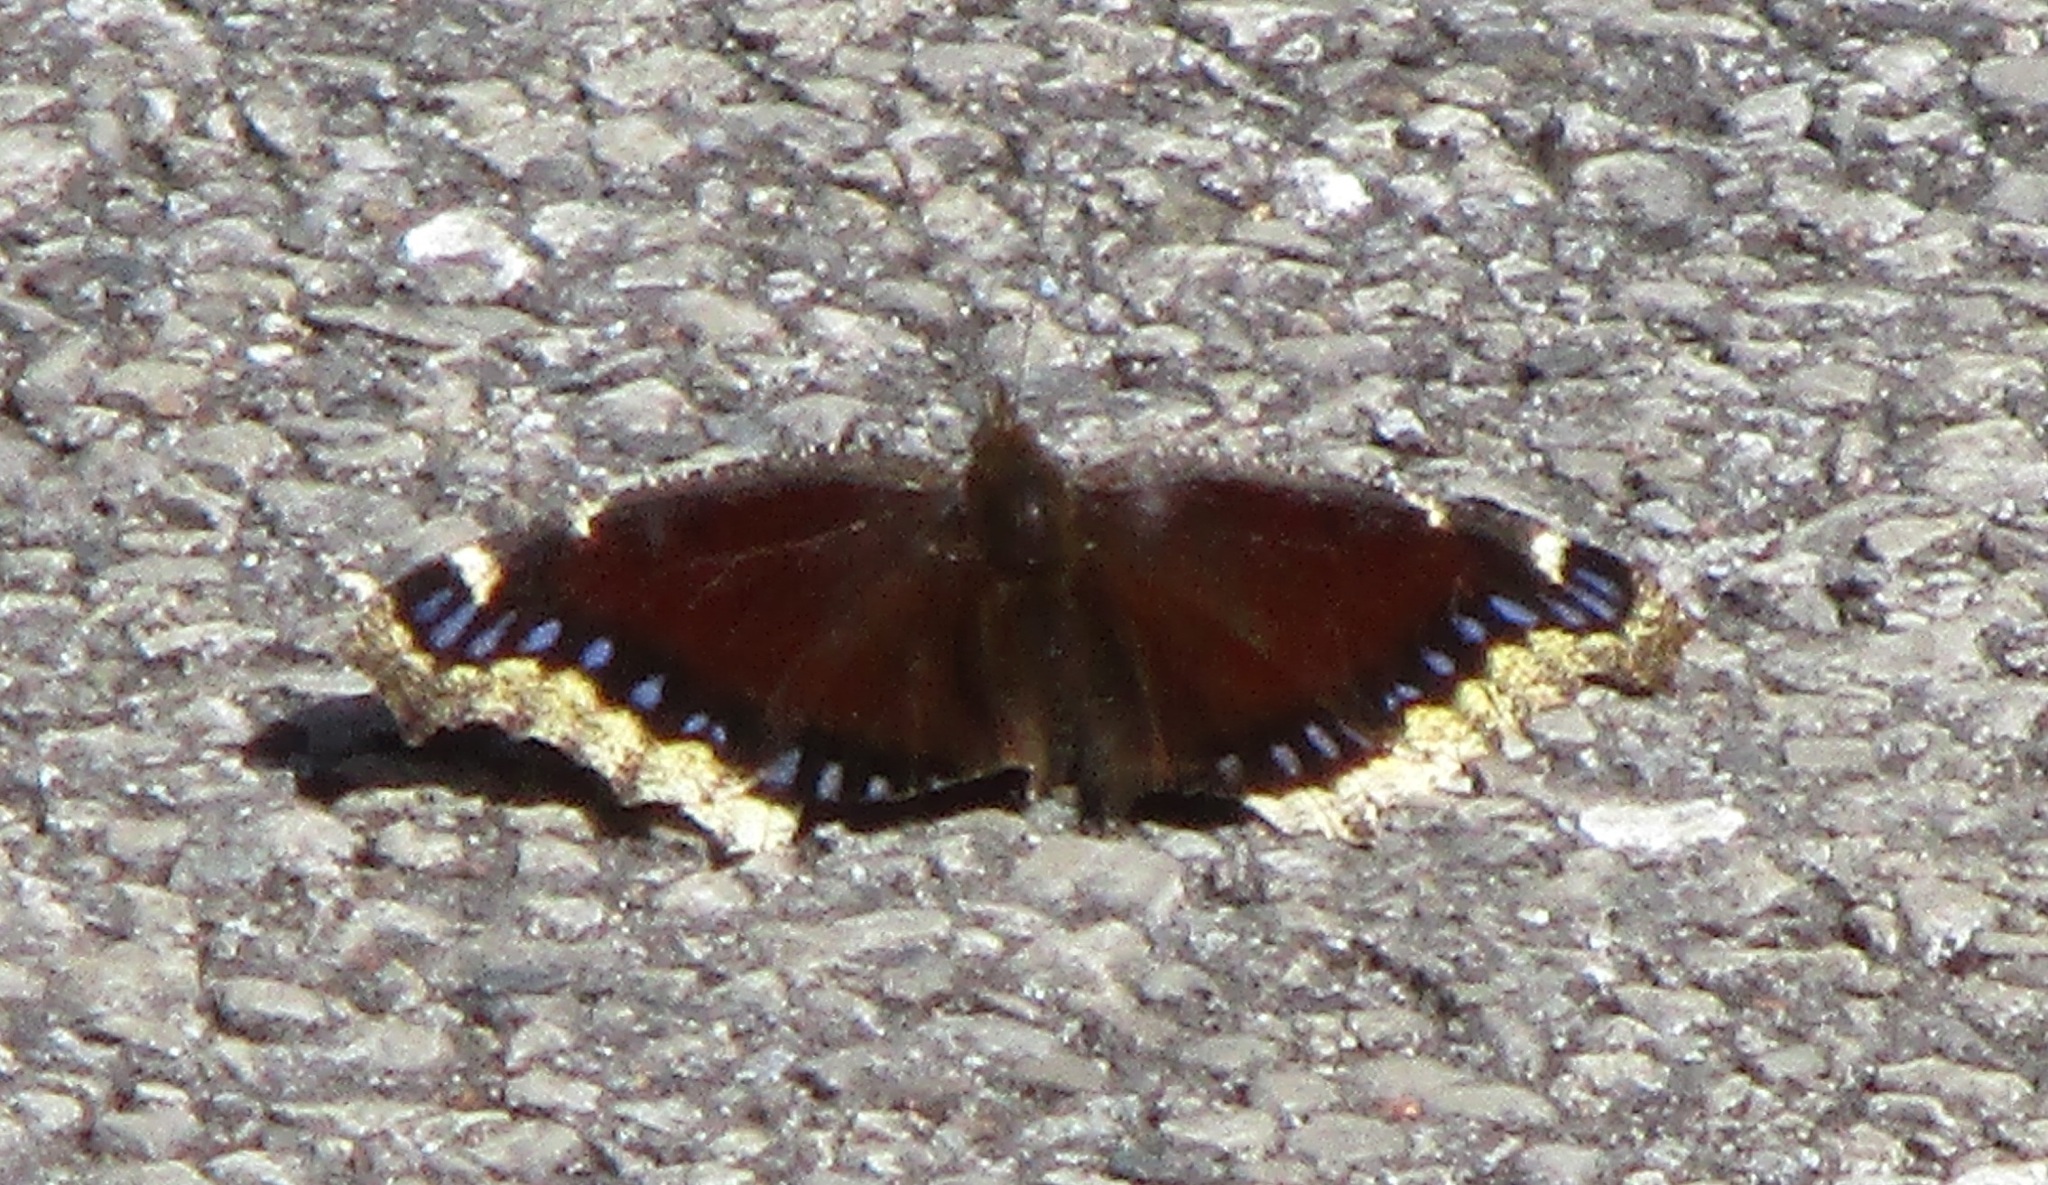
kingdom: Animalia
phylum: Arthropoda
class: Insecta
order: Lepidoptera
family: Nymphalidae
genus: Nymphalis
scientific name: Nymphalis antiopa
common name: Camberwell beauty
